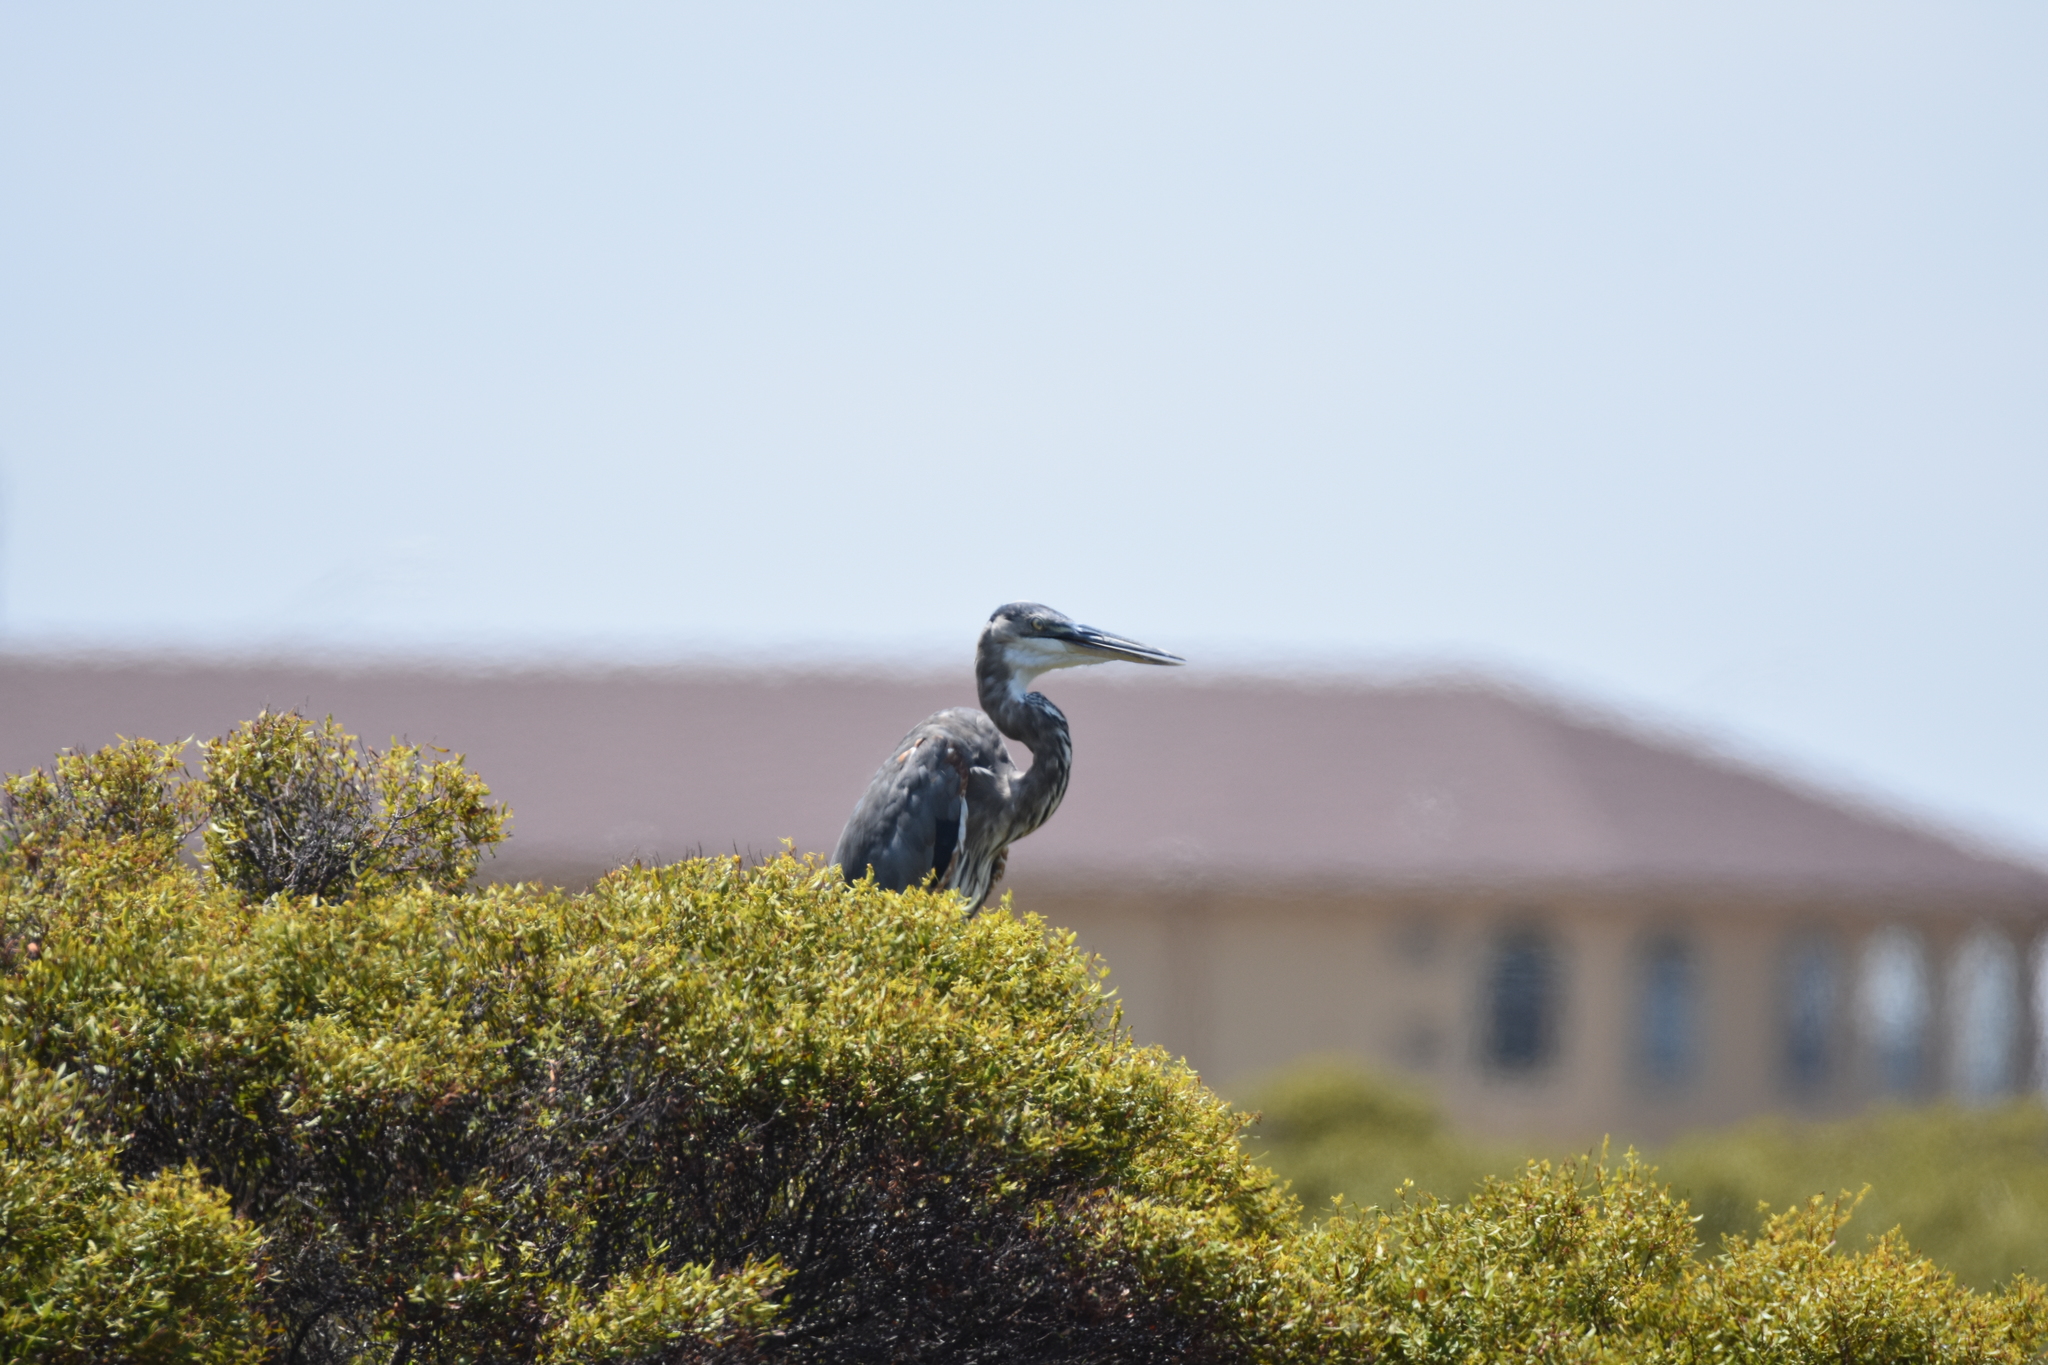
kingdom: Animalia
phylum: Chordata
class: Aves
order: Pelecaniformes
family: Ardeidae
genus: Ardea
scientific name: Ardea herodias
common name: Great blue heron
